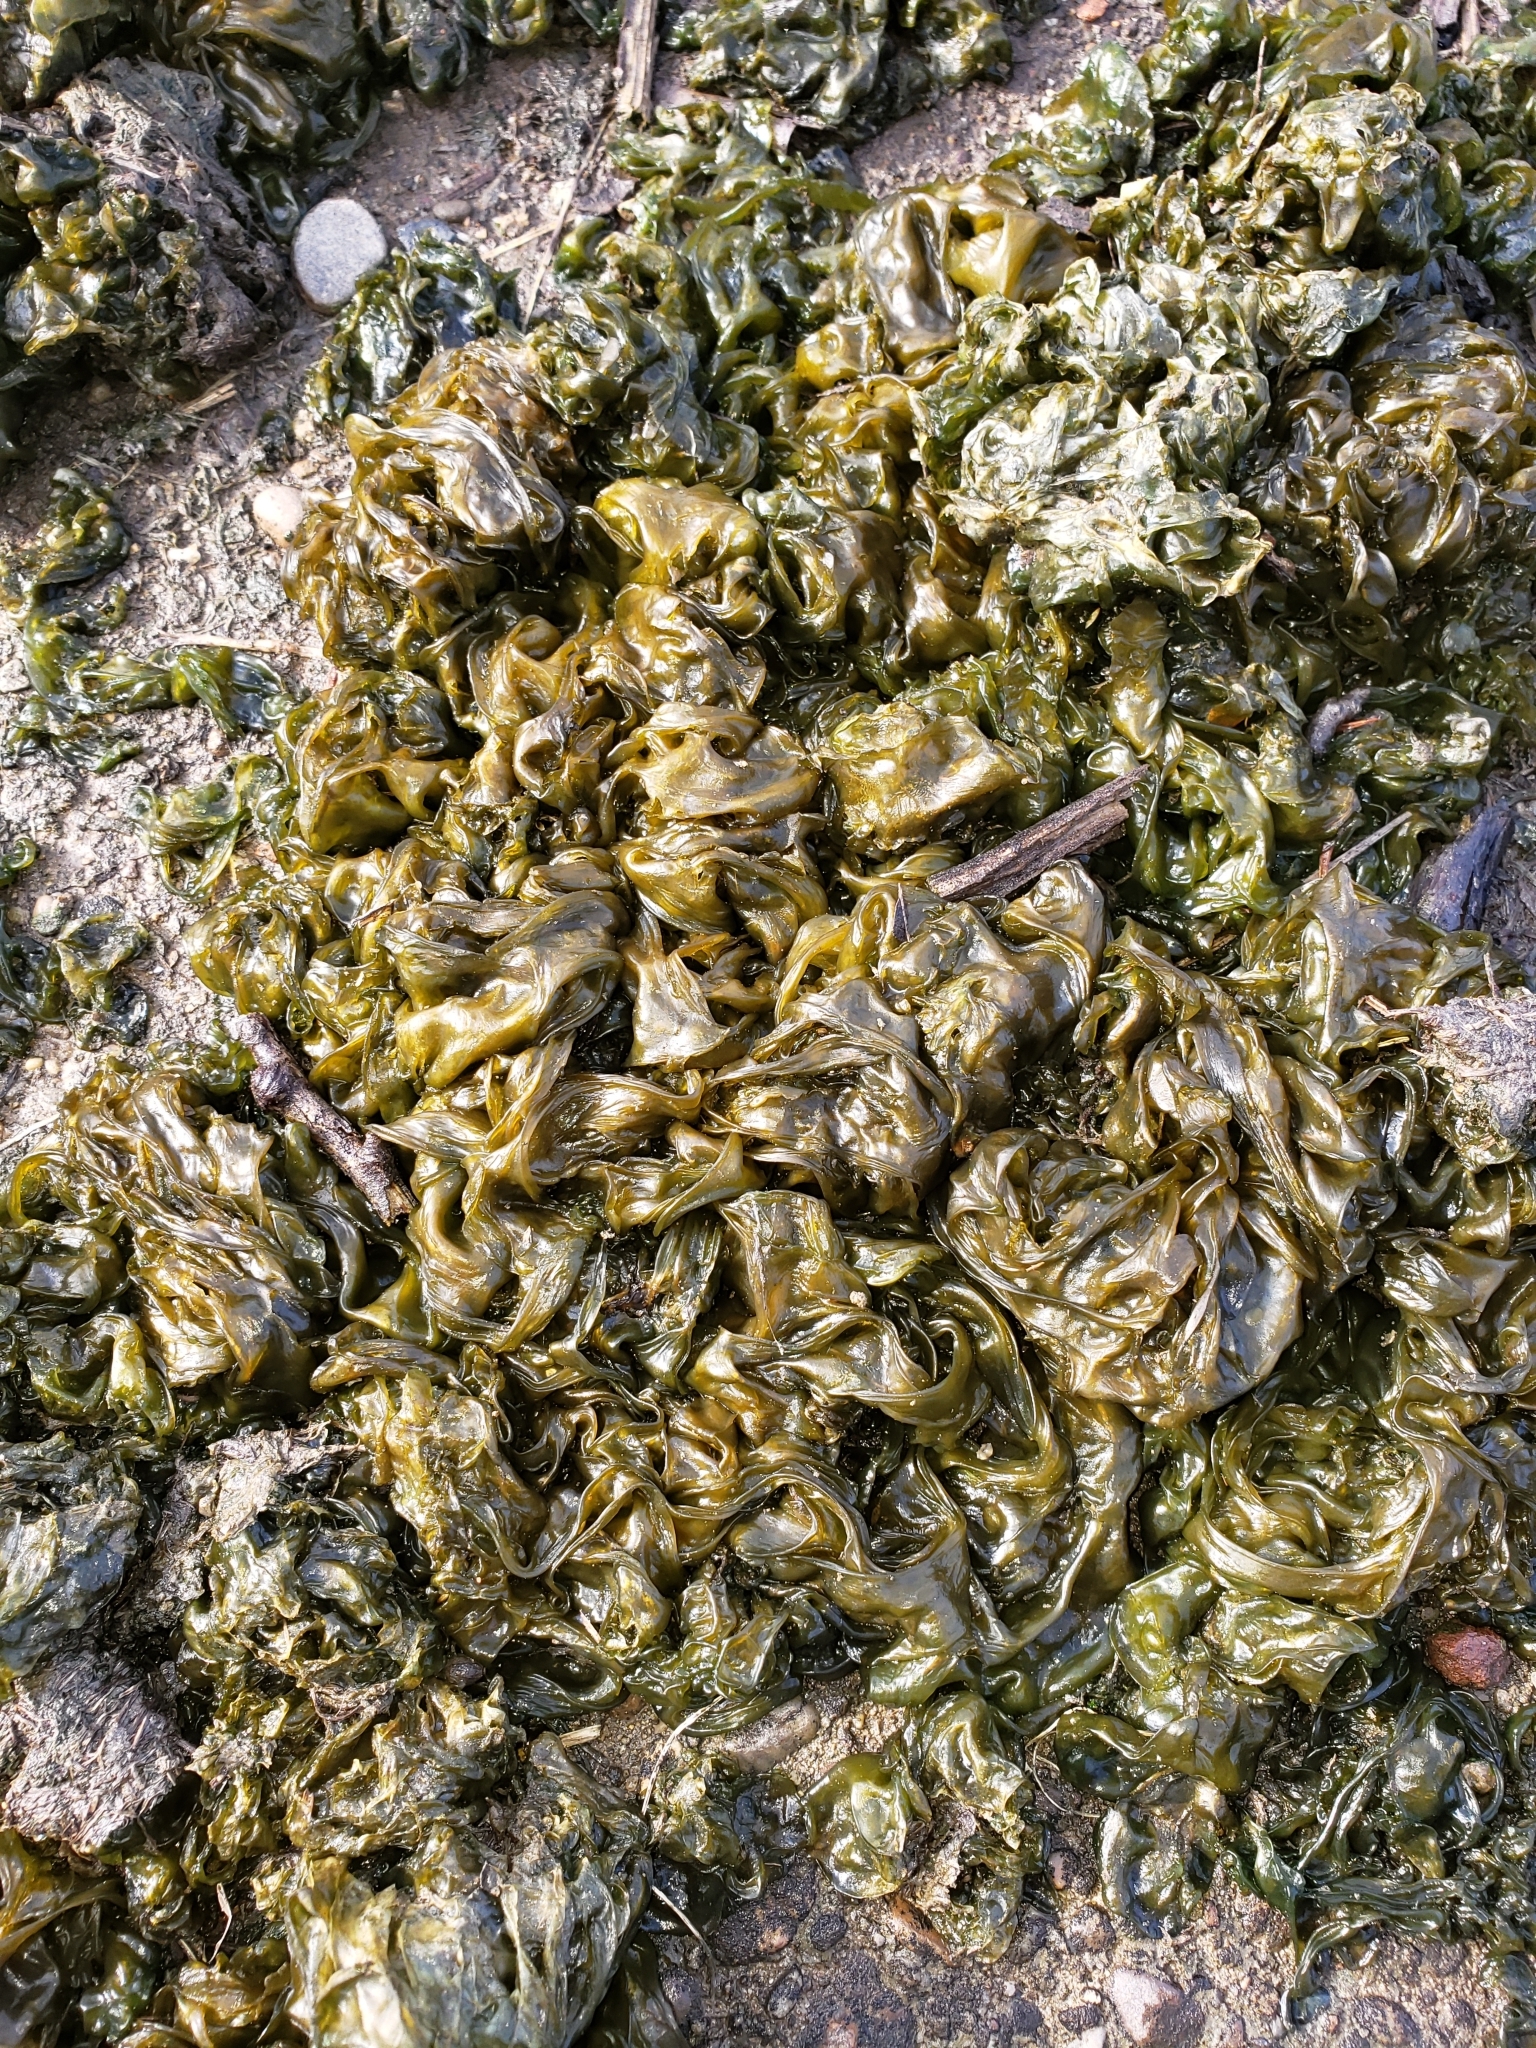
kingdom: Bacteria
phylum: Cyanobacteria
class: Cyanobacteriia
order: Cyanobacteriales
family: Nostocaceae
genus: Nostoc
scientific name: Nostoc commune
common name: Star jelly
